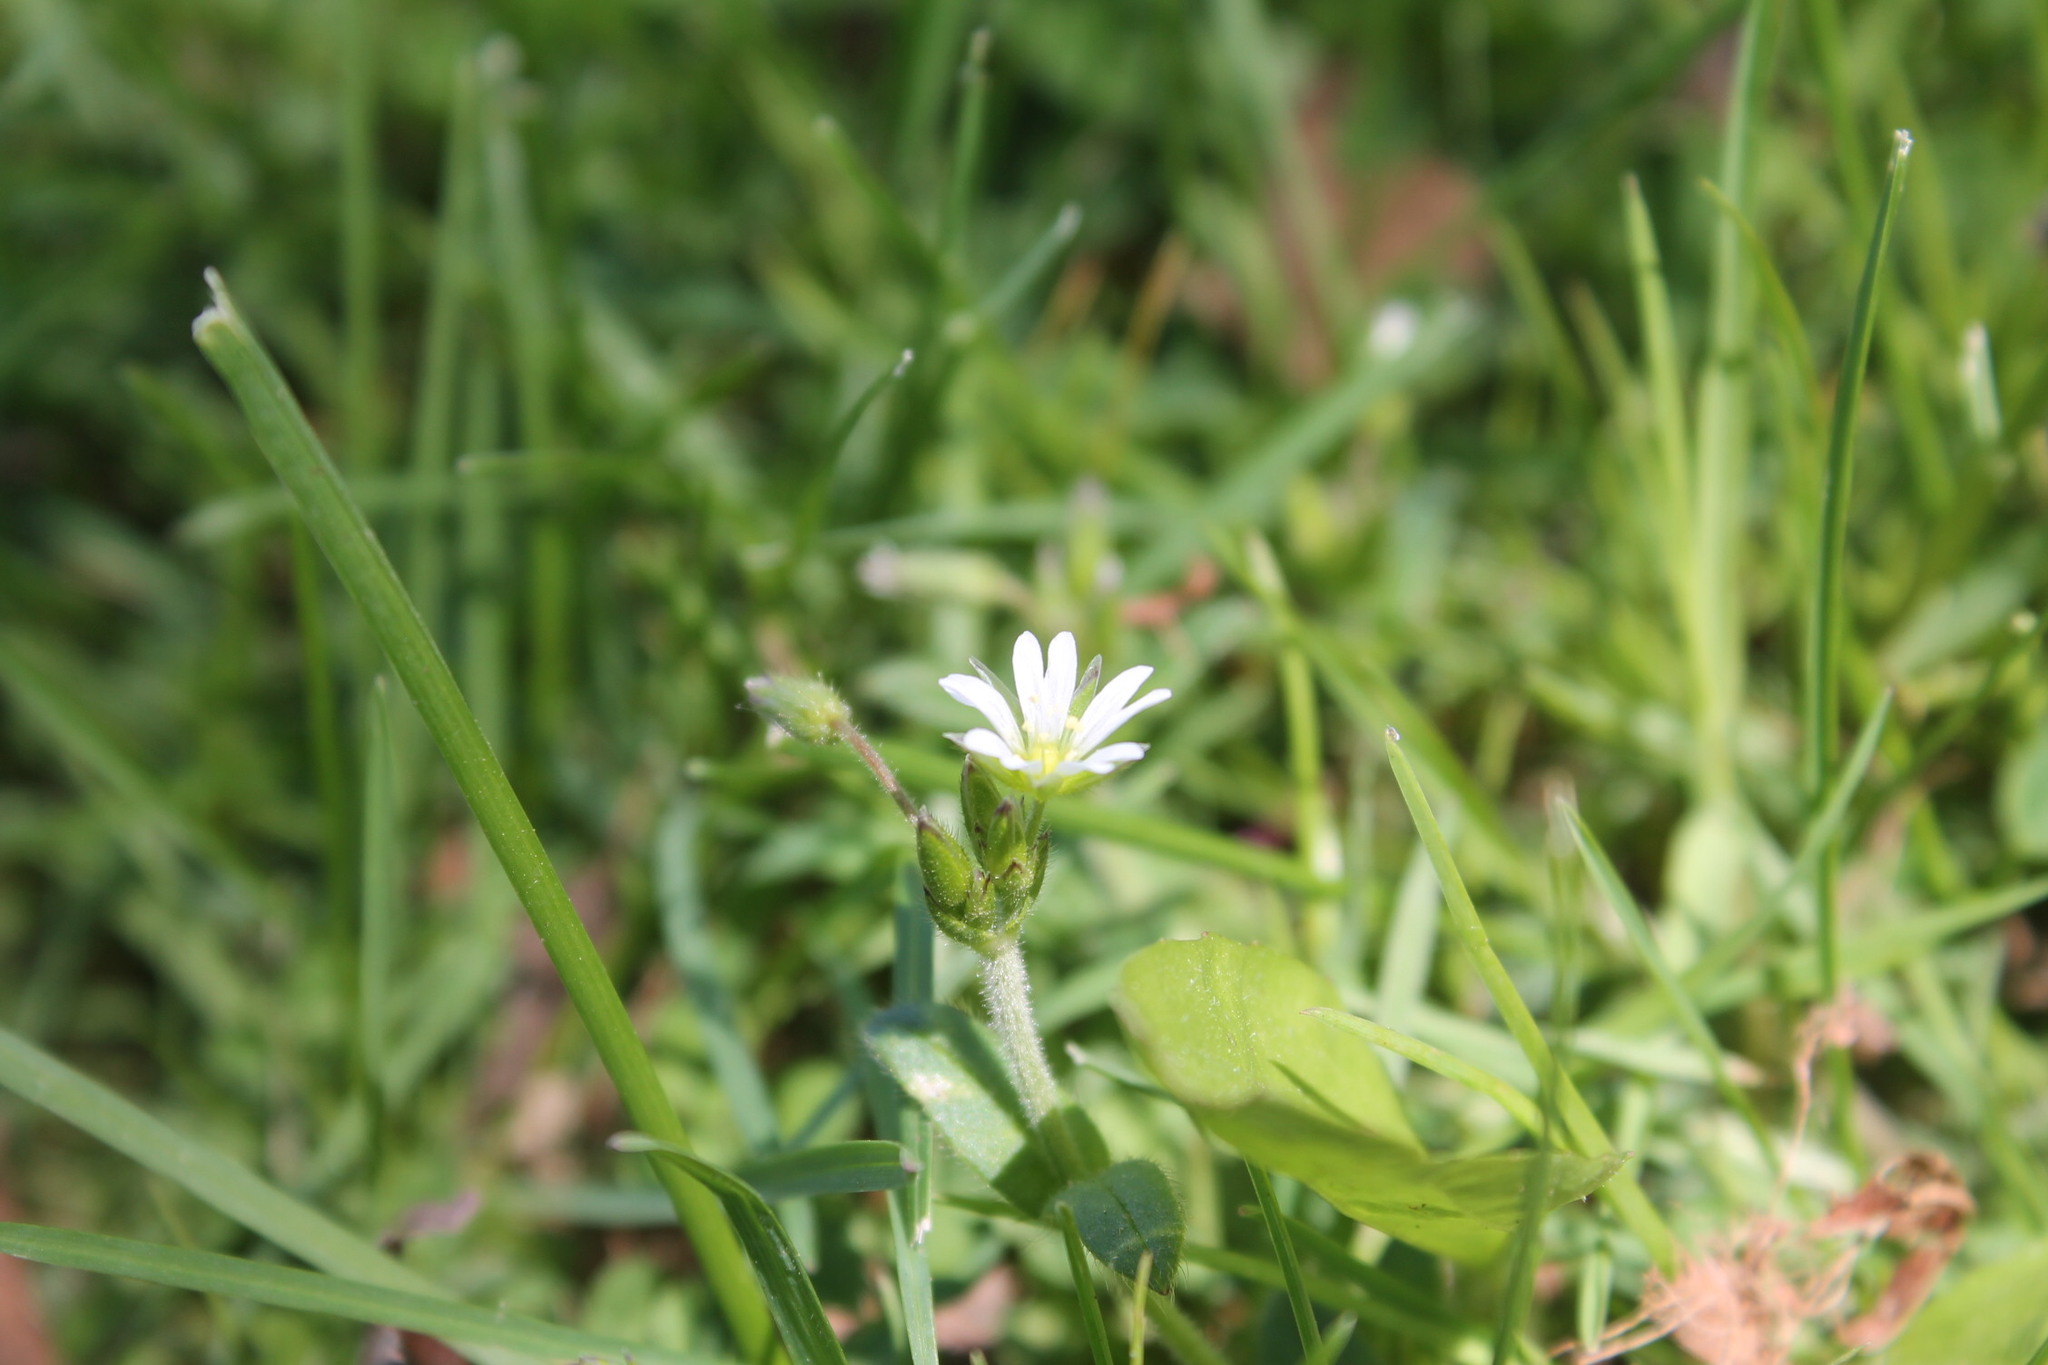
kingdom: Plantae
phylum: Tracheophyta
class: Magnoliopsida
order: Caryophyllales
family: Caryophyllaceae
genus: Cerastium
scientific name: Cerastium fontanum
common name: Common mouse-ear
